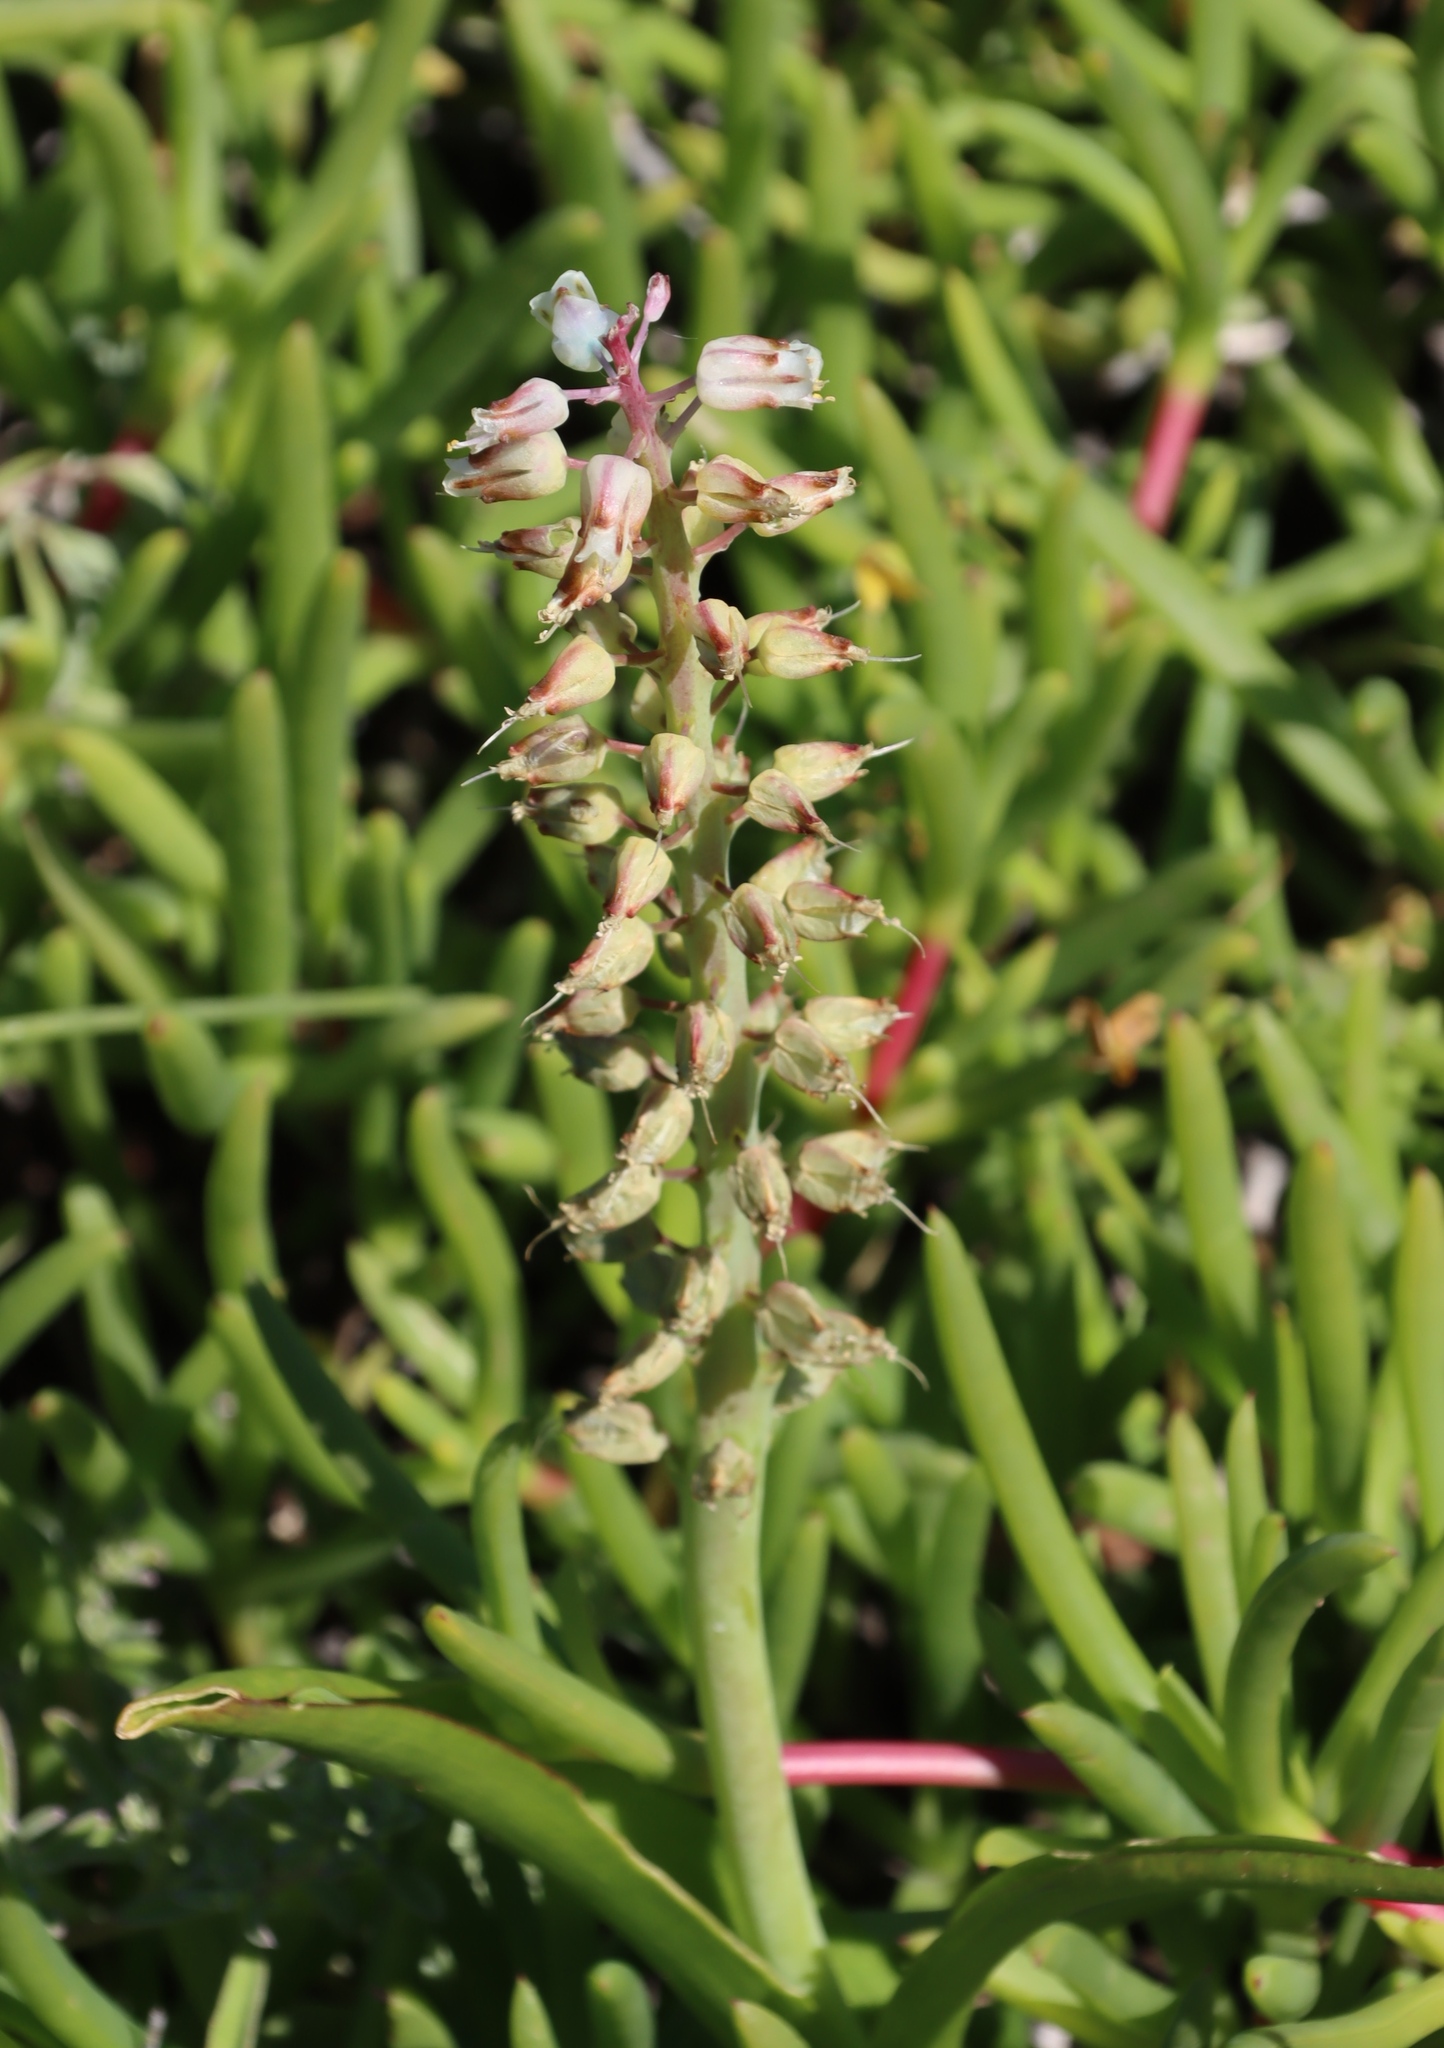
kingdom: Plantae
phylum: Tracheophyta
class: Liliopsida
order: Asparagales
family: Asparagaceae
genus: Lachenalia
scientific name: Lachenalia pallida
